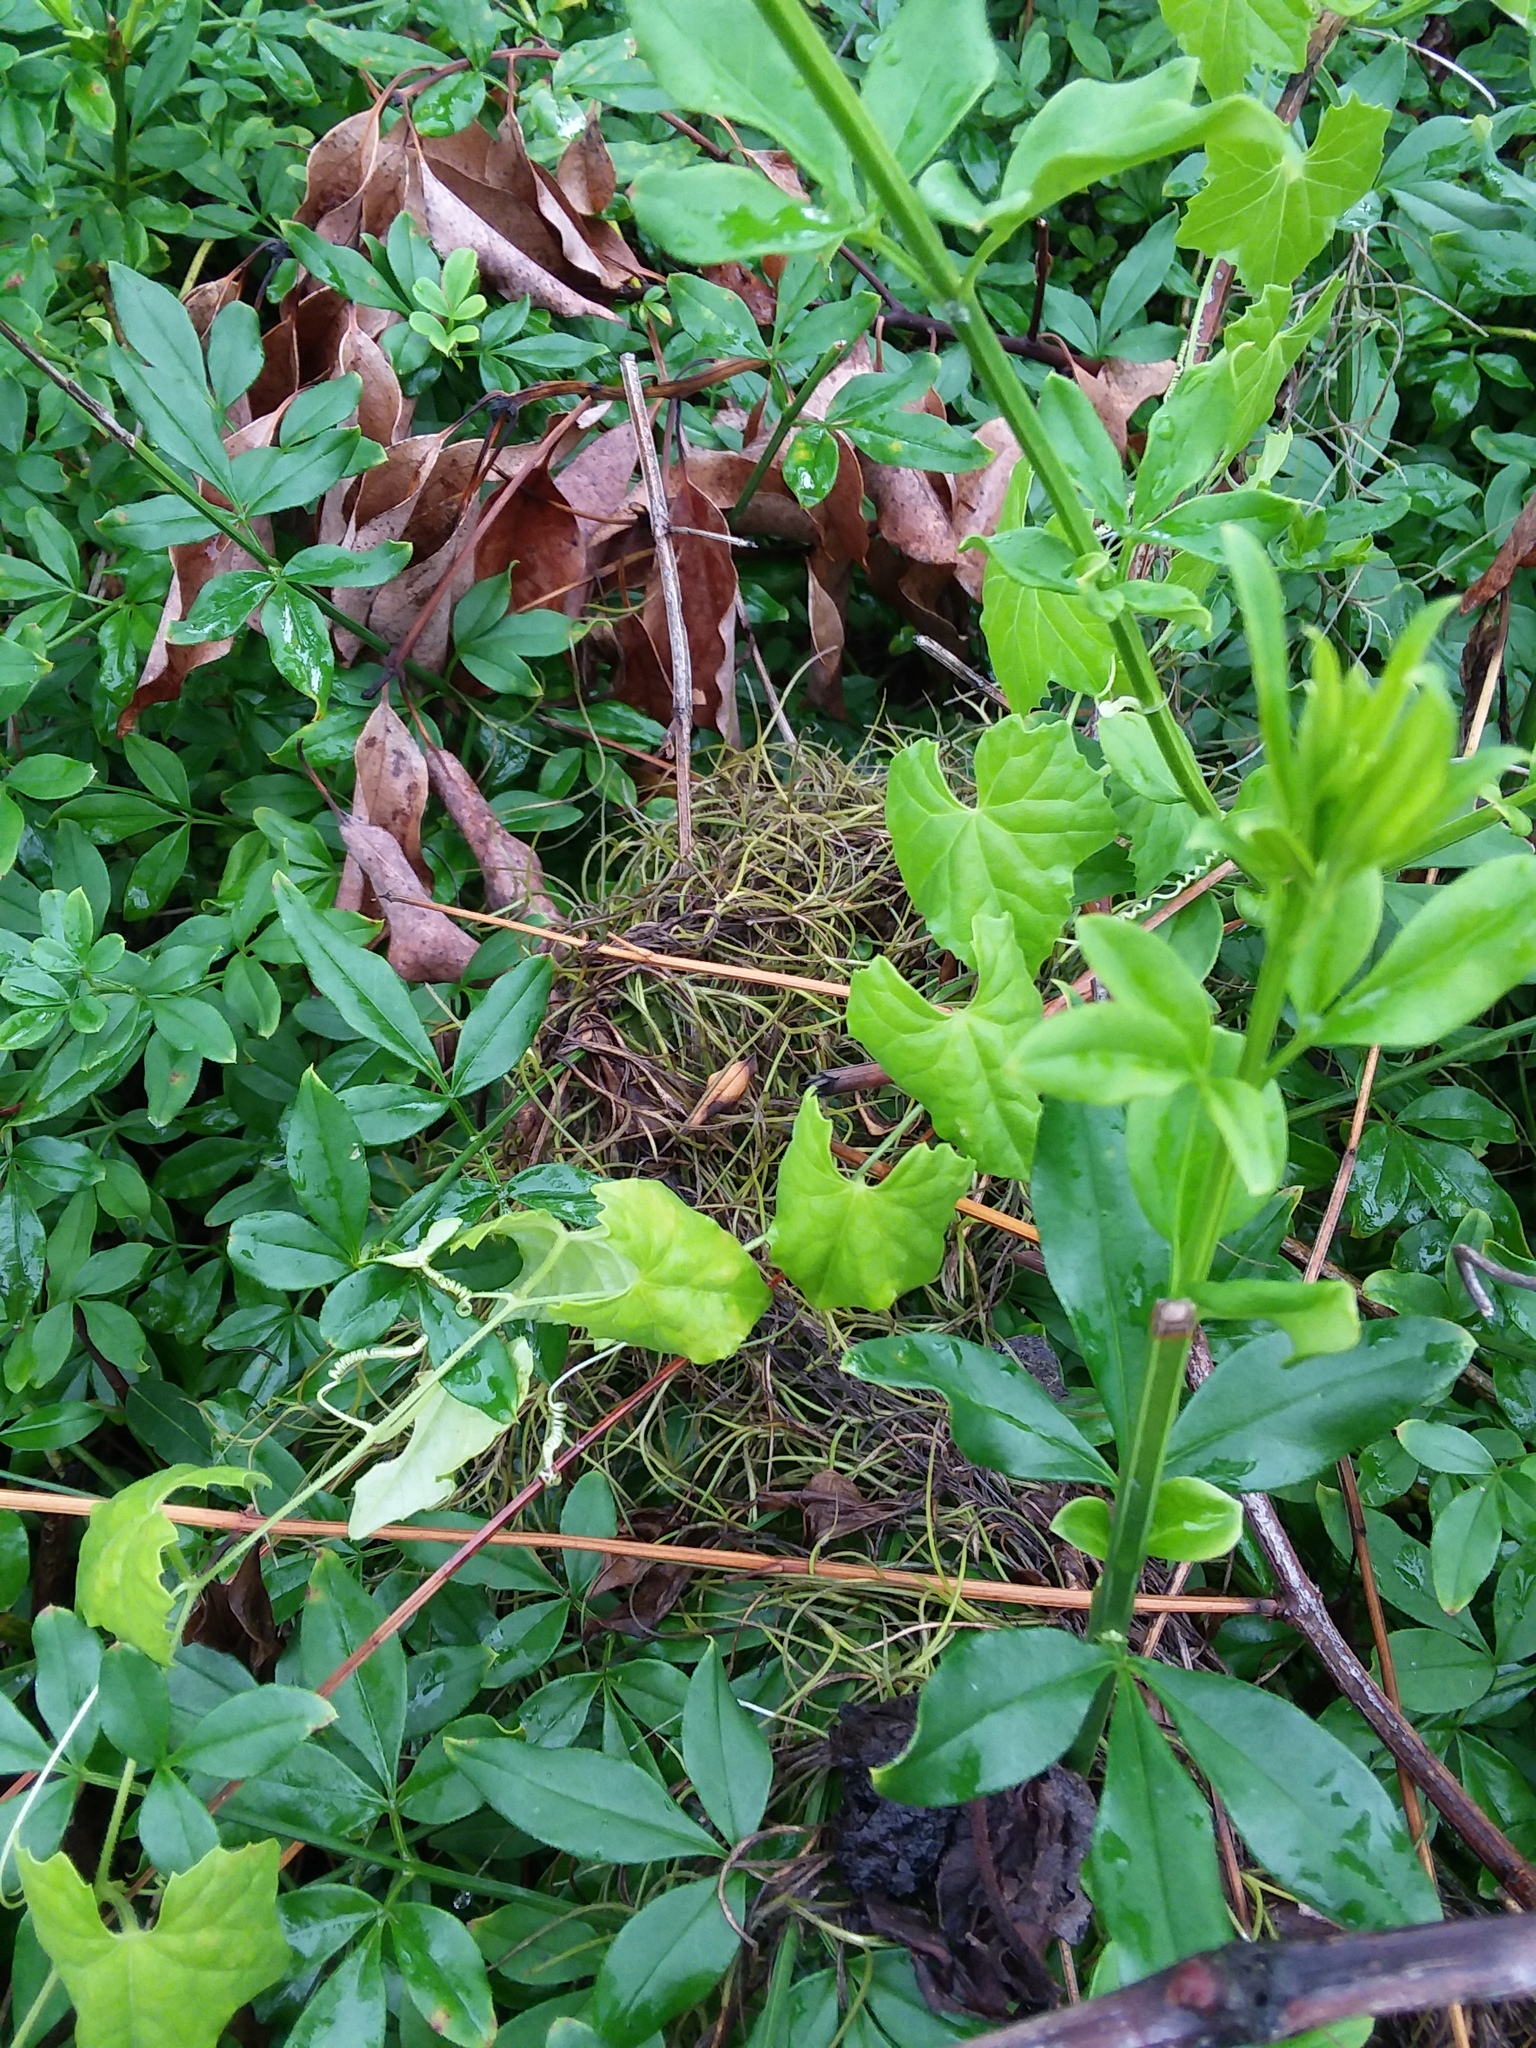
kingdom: Plantae
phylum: Tracheophyta
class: Magnoliopsida
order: Cucurbitales
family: Cucurbitaceae
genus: Melothria
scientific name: Melothria pendula
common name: Creeping-cucumber
